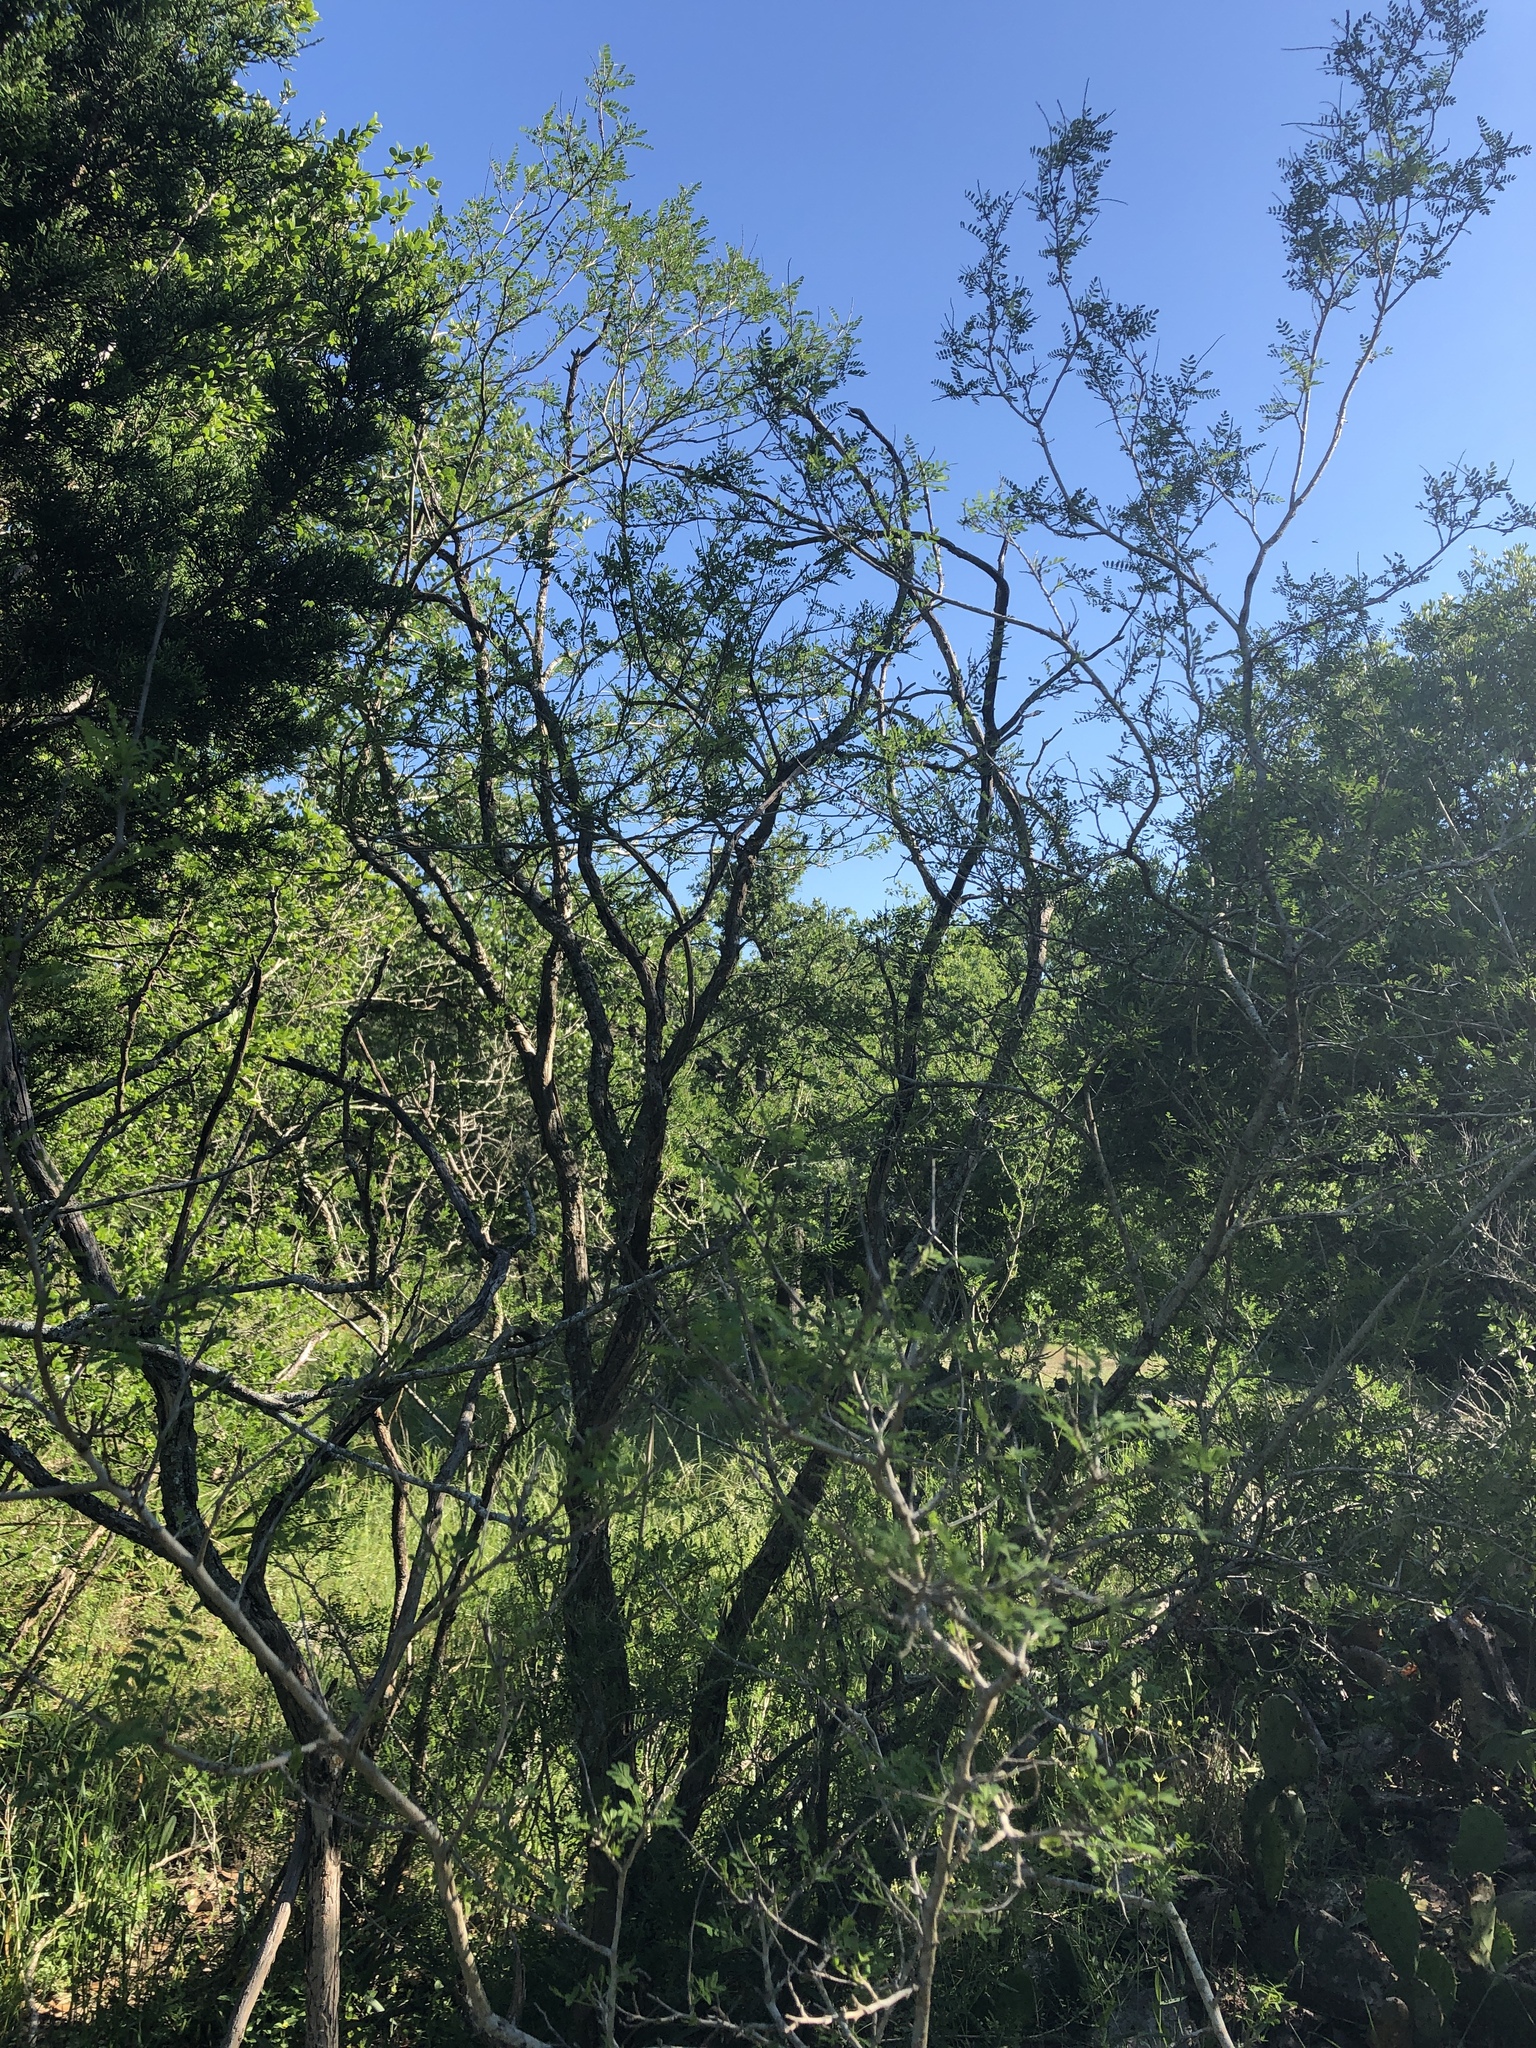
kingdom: Plantae
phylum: Tracheophyta
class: Magnoliopsida
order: Fabales
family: Fabaceae
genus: Eysenhardtia
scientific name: Eysenhardtia texana
